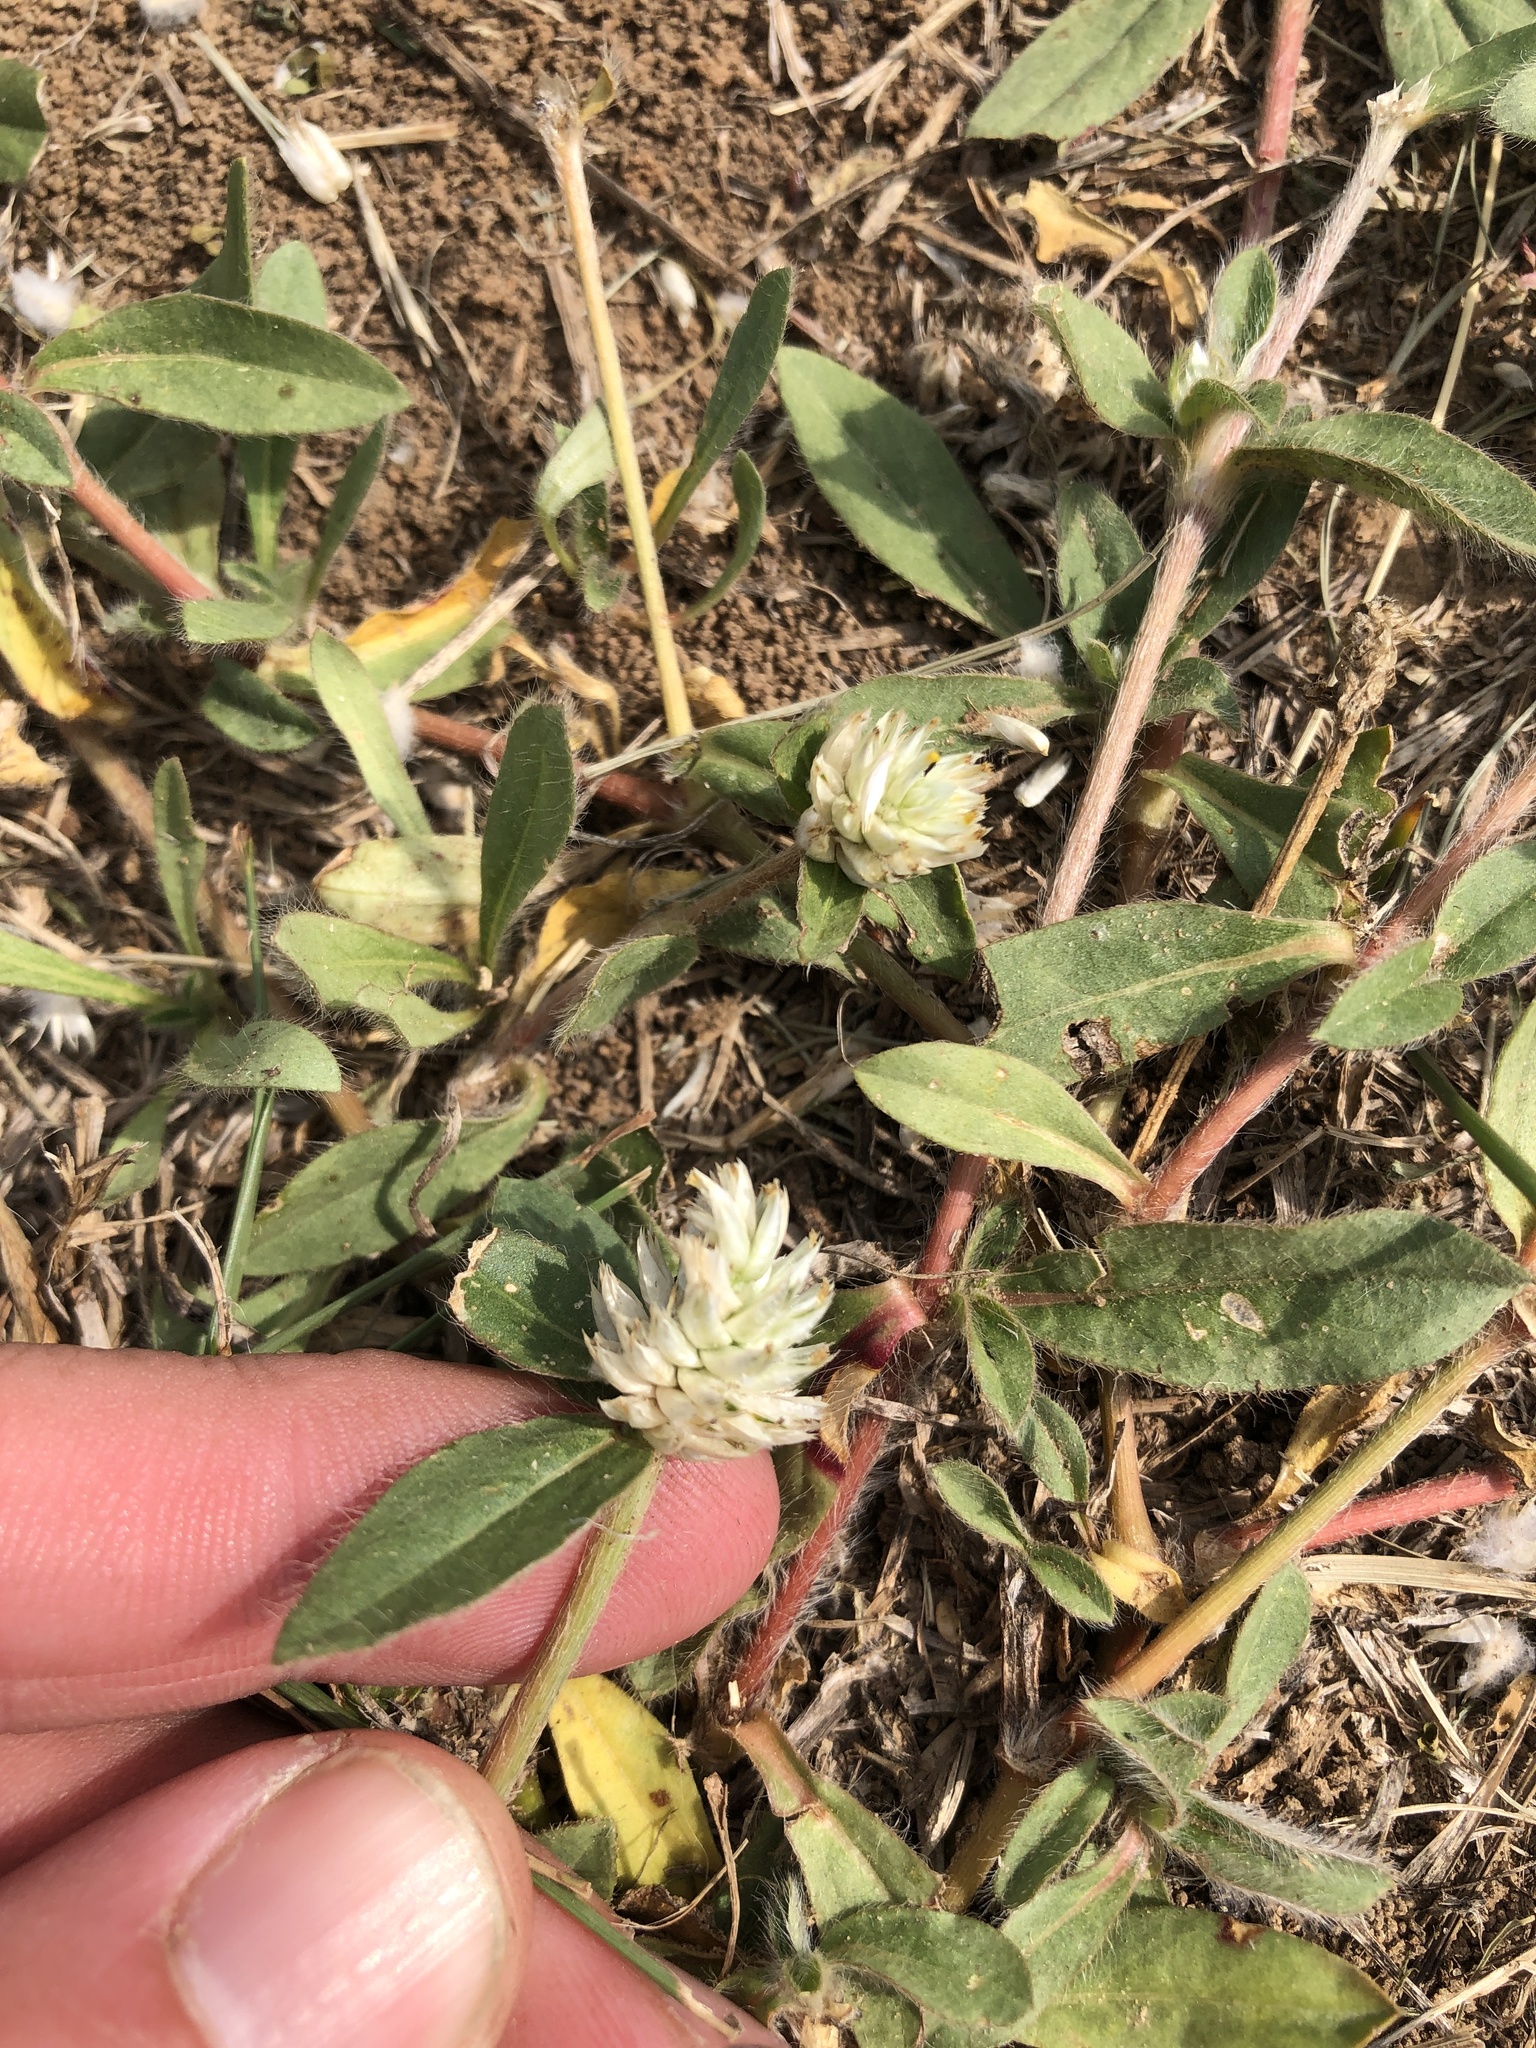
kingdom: Plantae
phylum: Tracheophyta
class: Magnoliopsida
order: Caryophyllales
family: Amaranthaceae
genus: Gomphrena
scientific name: Gomphrena serrata
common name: Arrasa con todo
